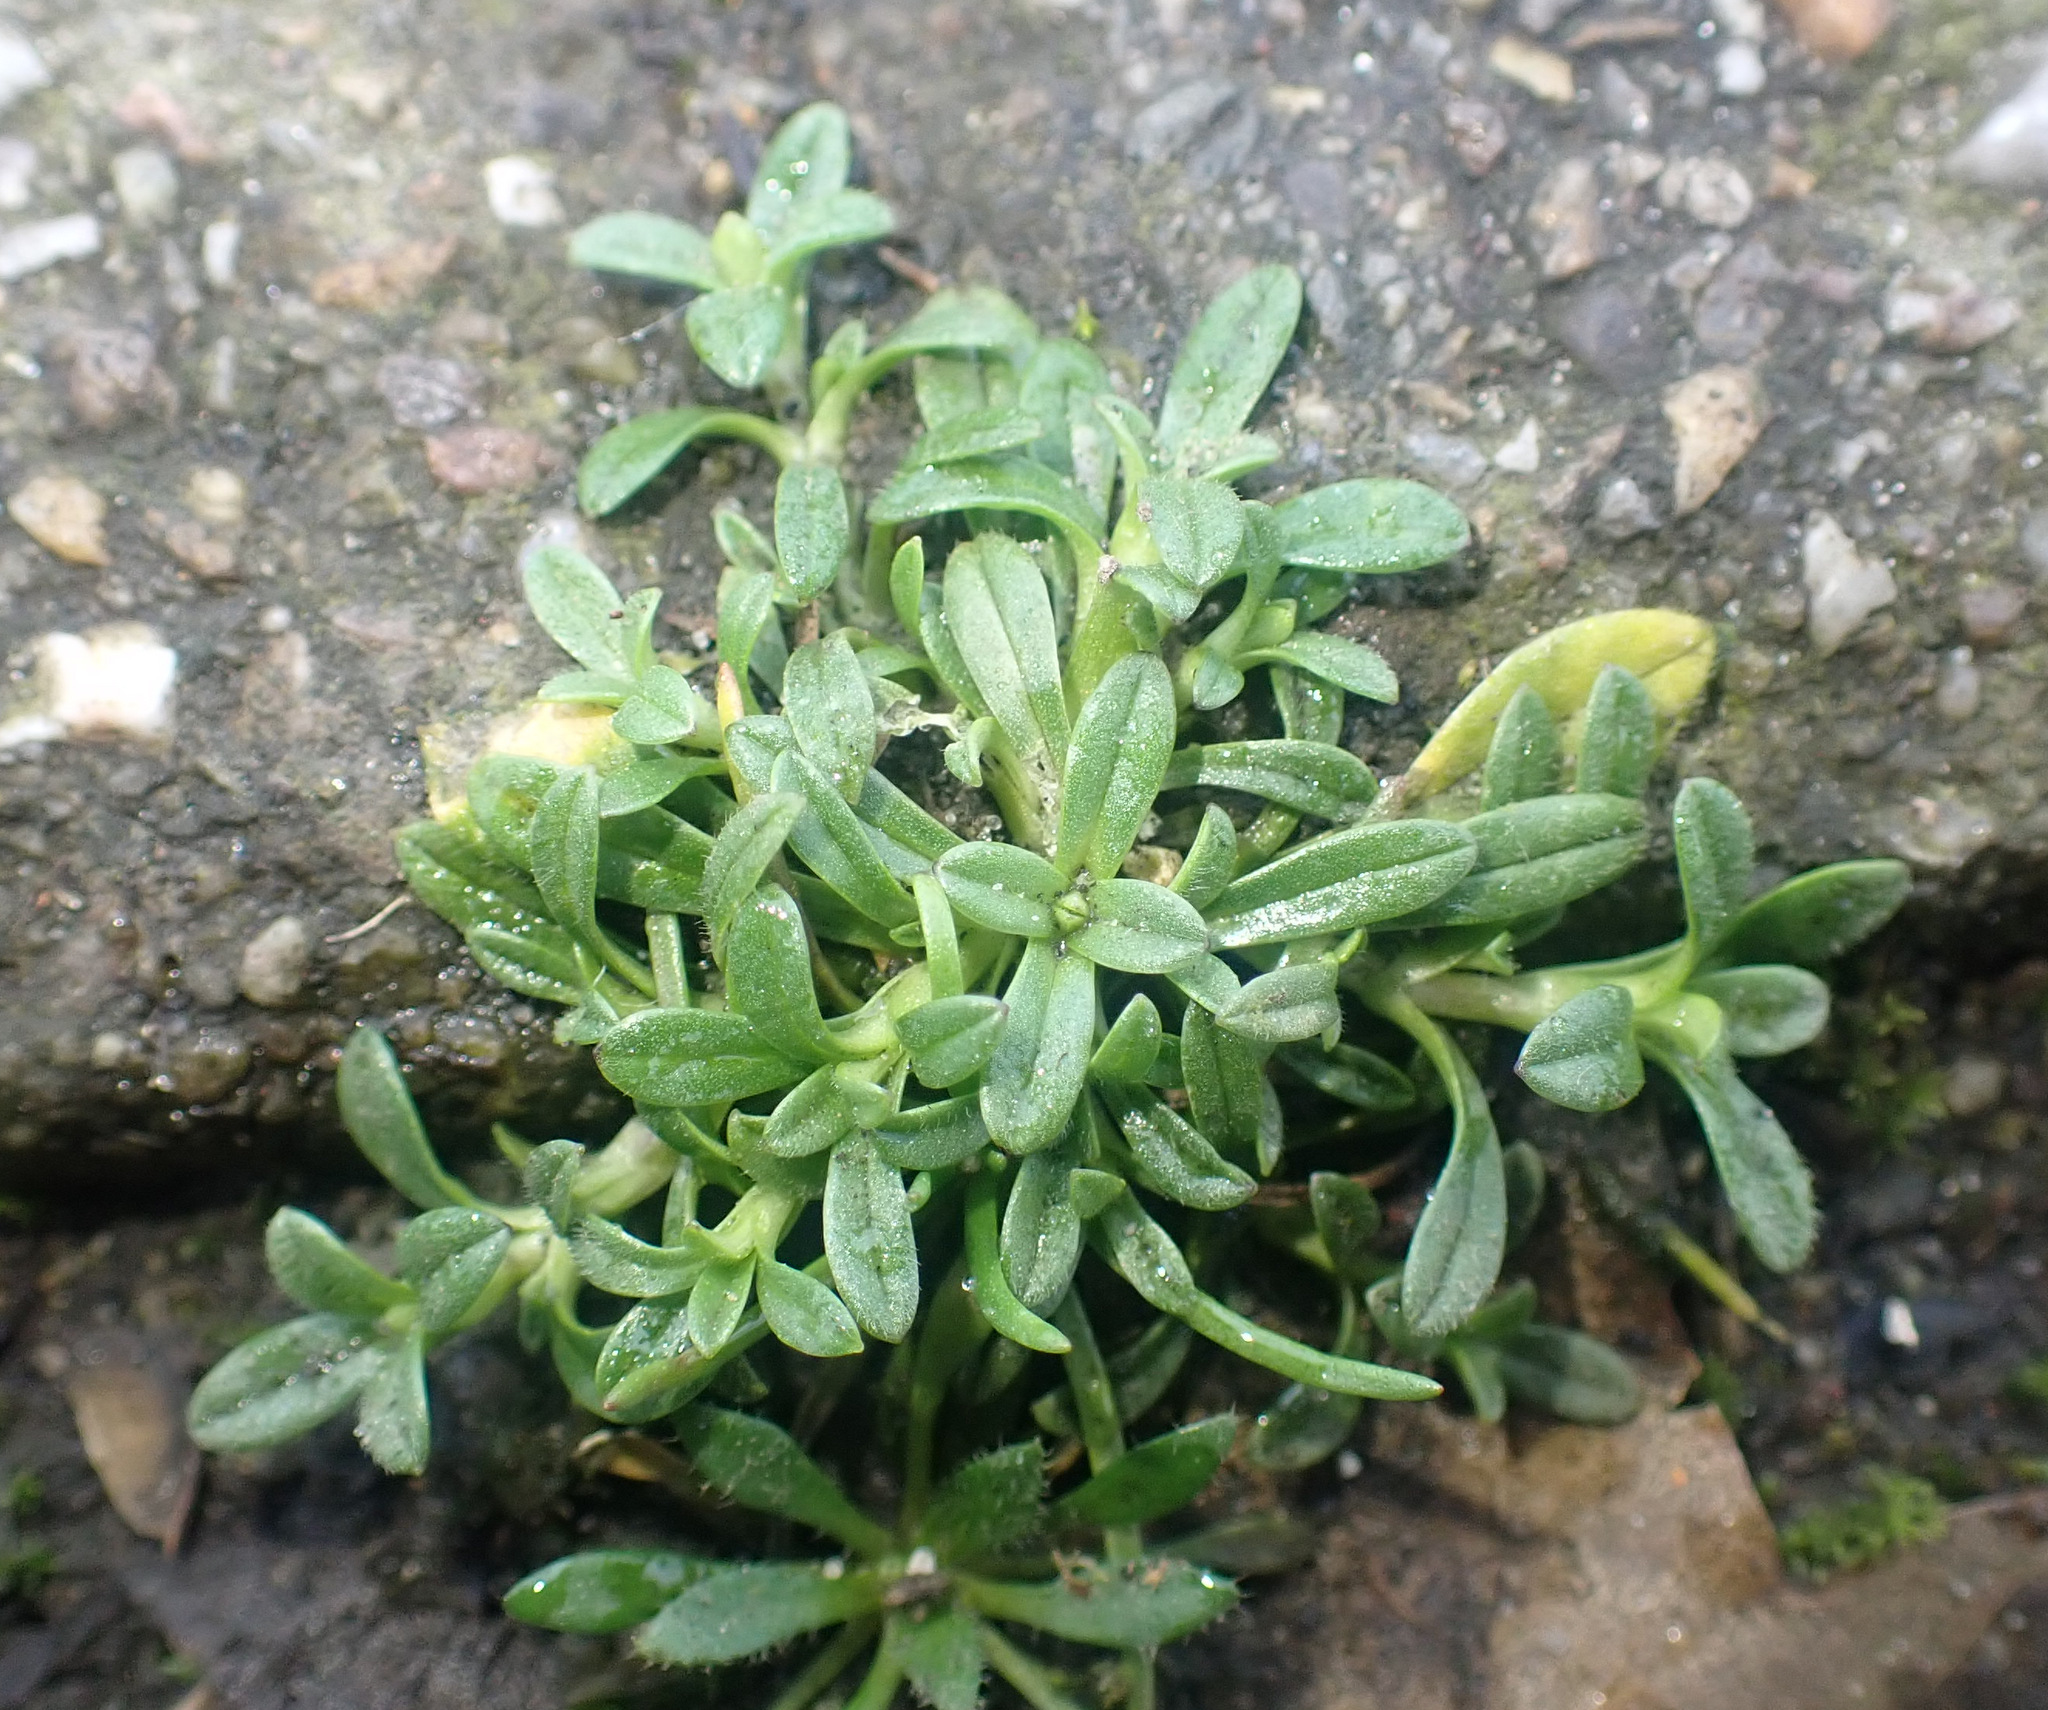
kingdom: Plantae
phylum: Tracheophyta
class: Magnoliopsida
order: Caryophyllales
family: Caryophyllaceae
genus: Cerastium
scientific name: Cerastium semidecandrum
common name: Little mouse-ear
